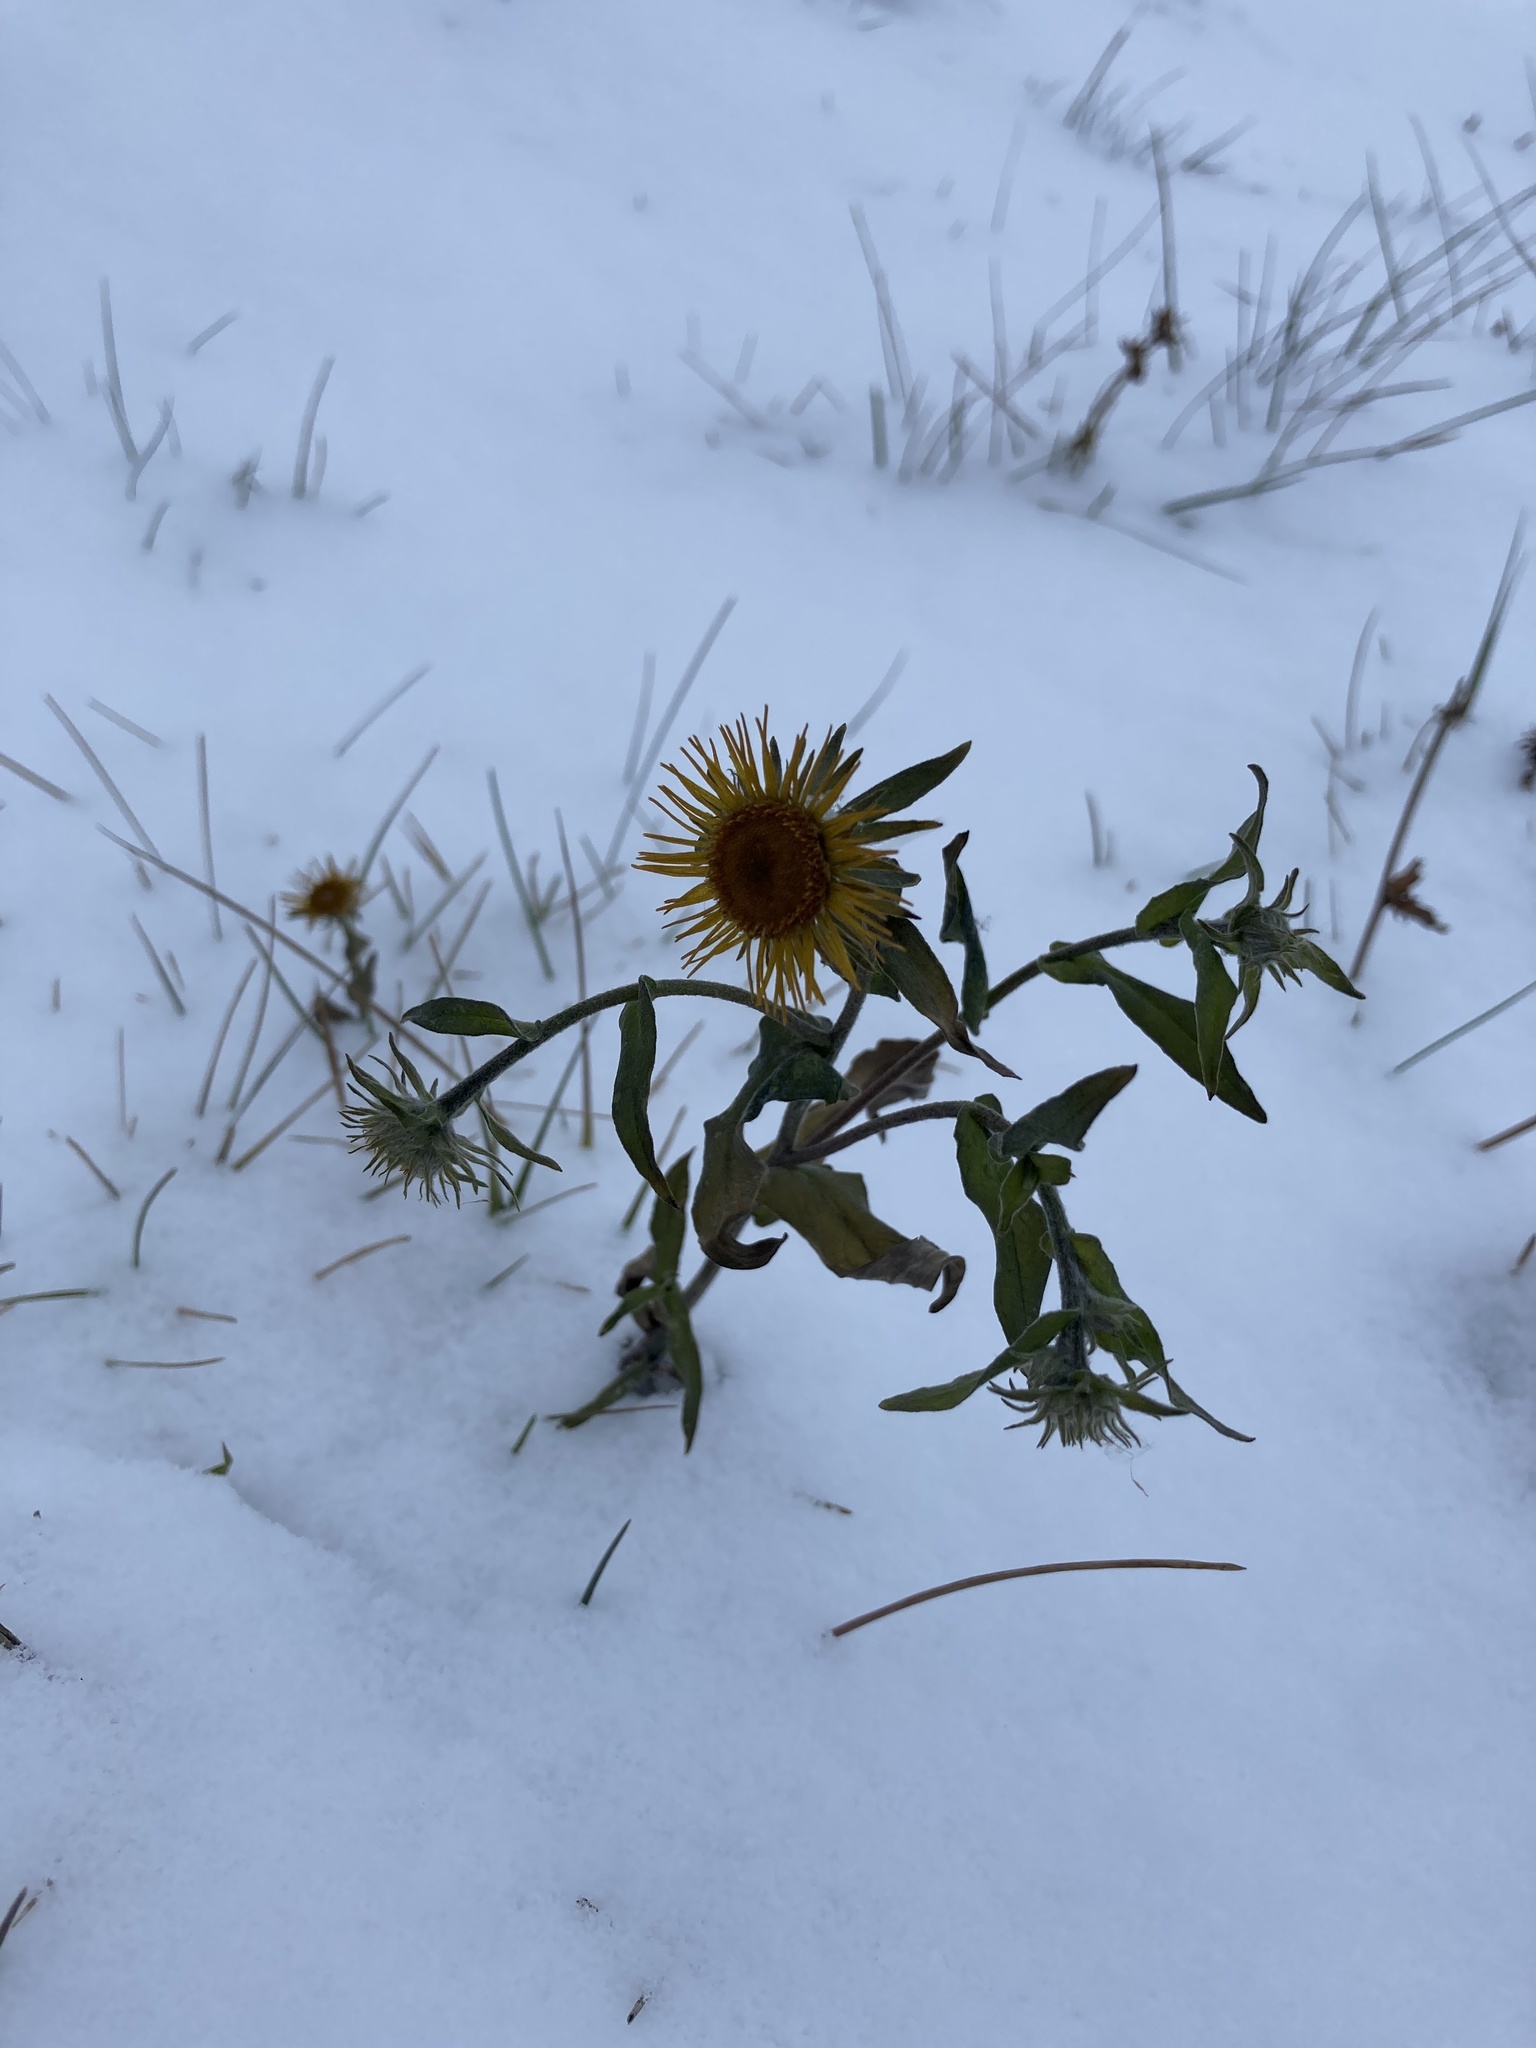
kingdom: Plantae
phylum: Tracheophyta
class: Magnoliopsida
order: Asterales
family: Asteraceae
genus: Pentanema
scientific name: Pentanema britannicum
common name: British elecampane
